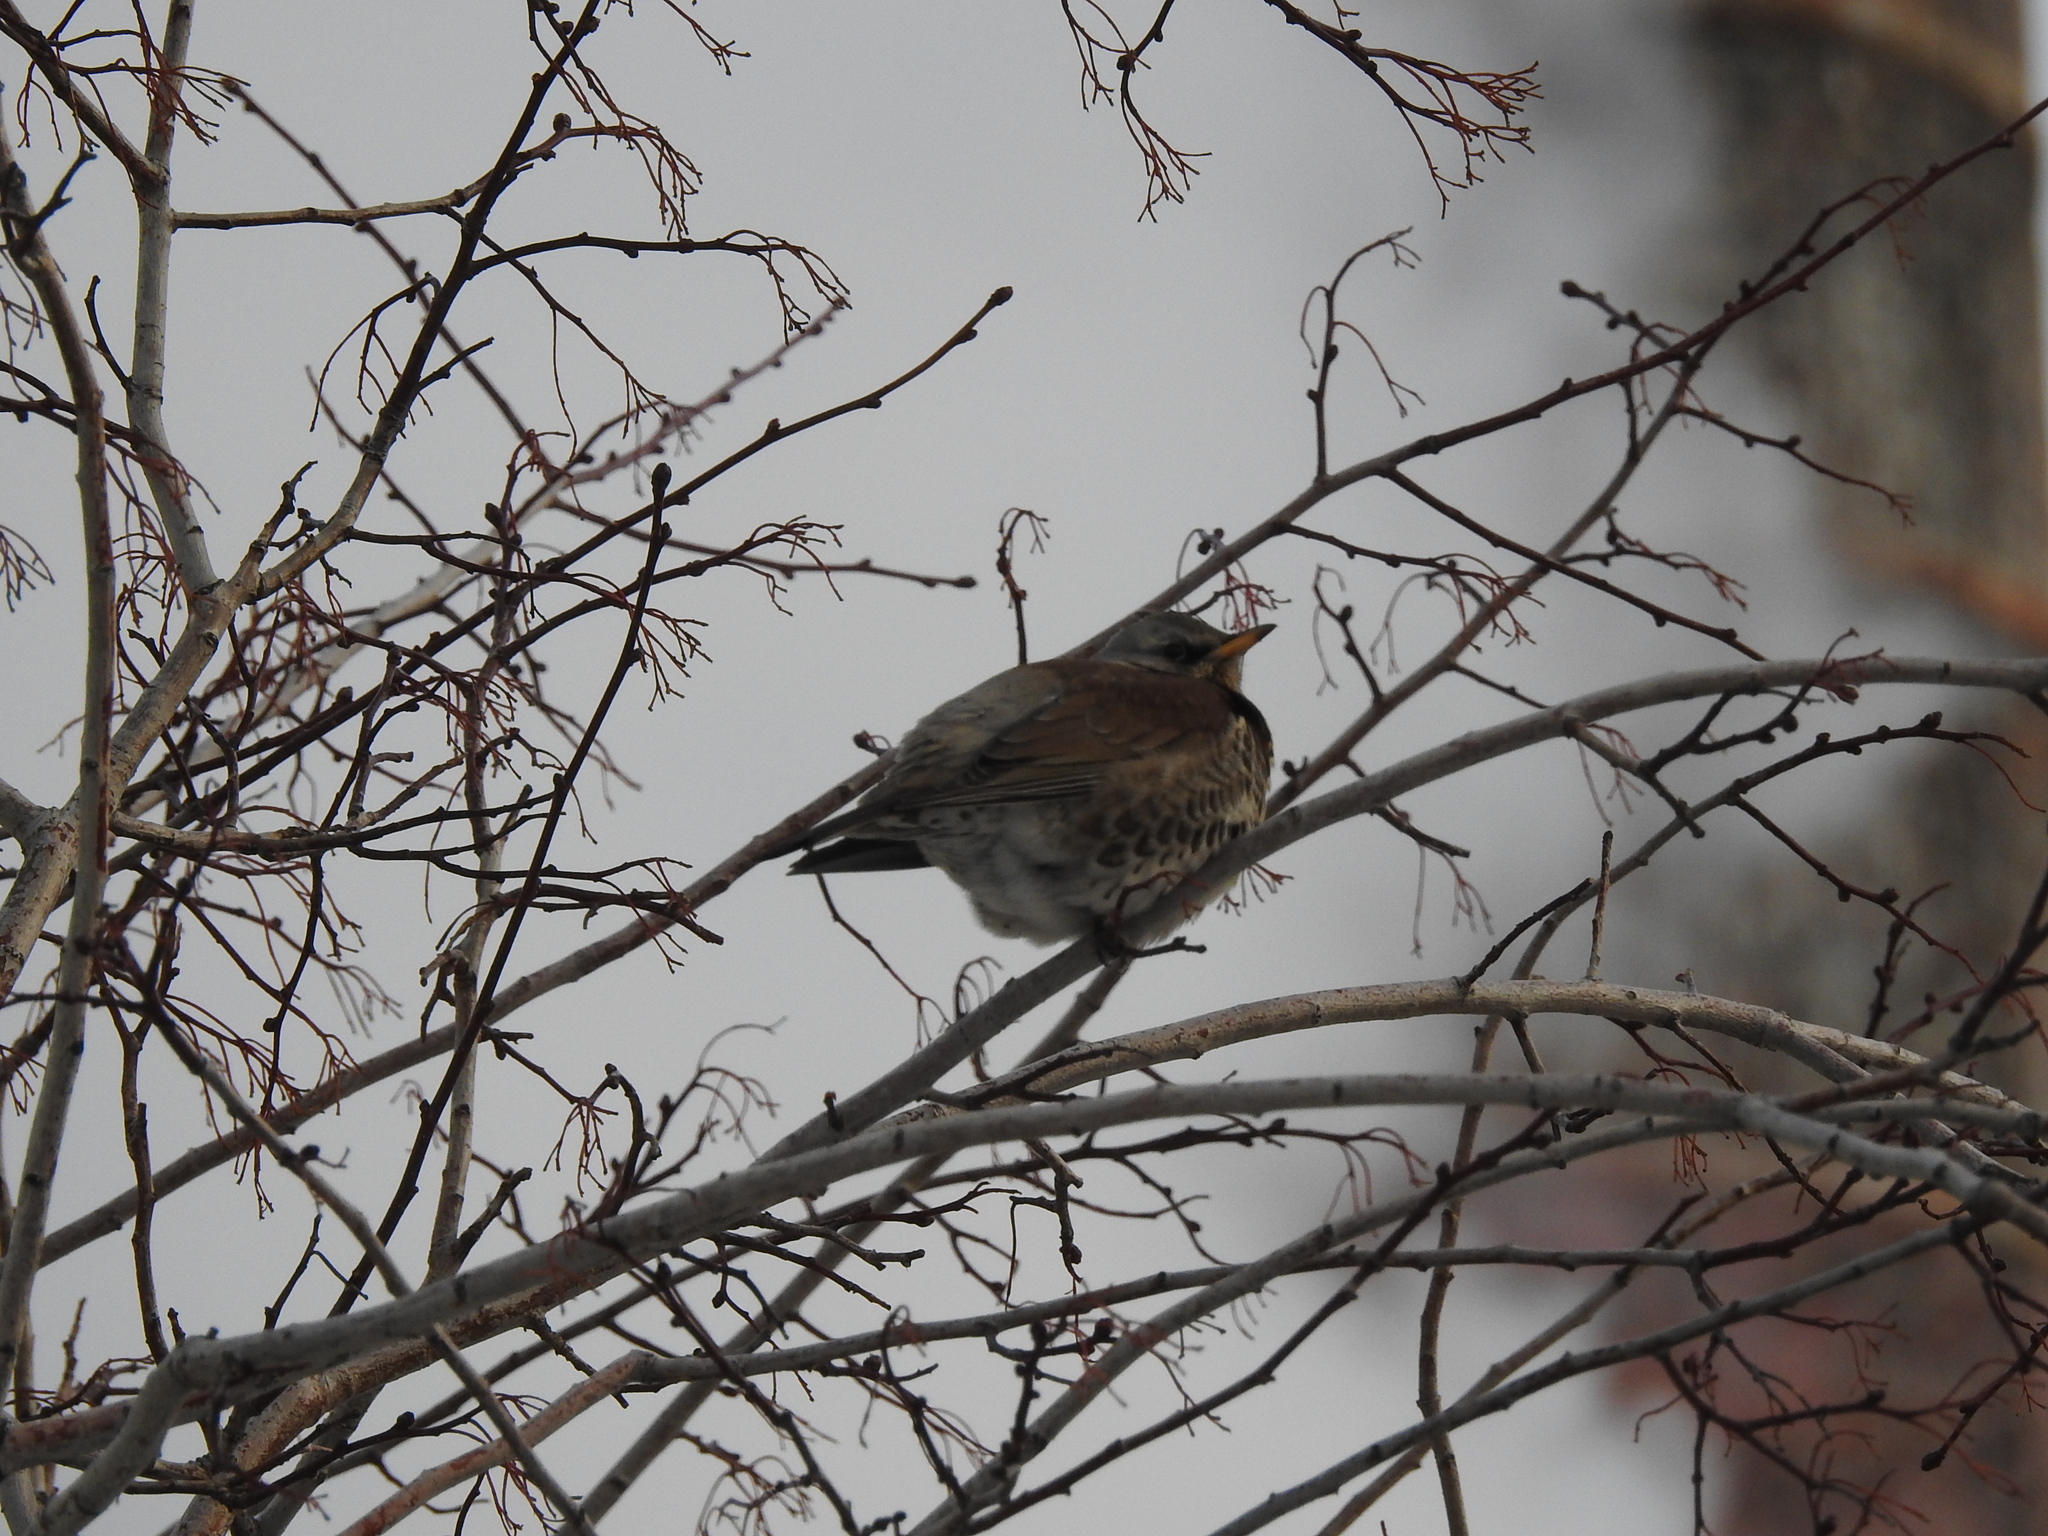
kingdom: Animalia
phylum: Chordata
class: Aves
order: Passeriformes
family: Turdidae
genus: Turdus
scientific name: Turdus pilaris
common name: Fieldfare
